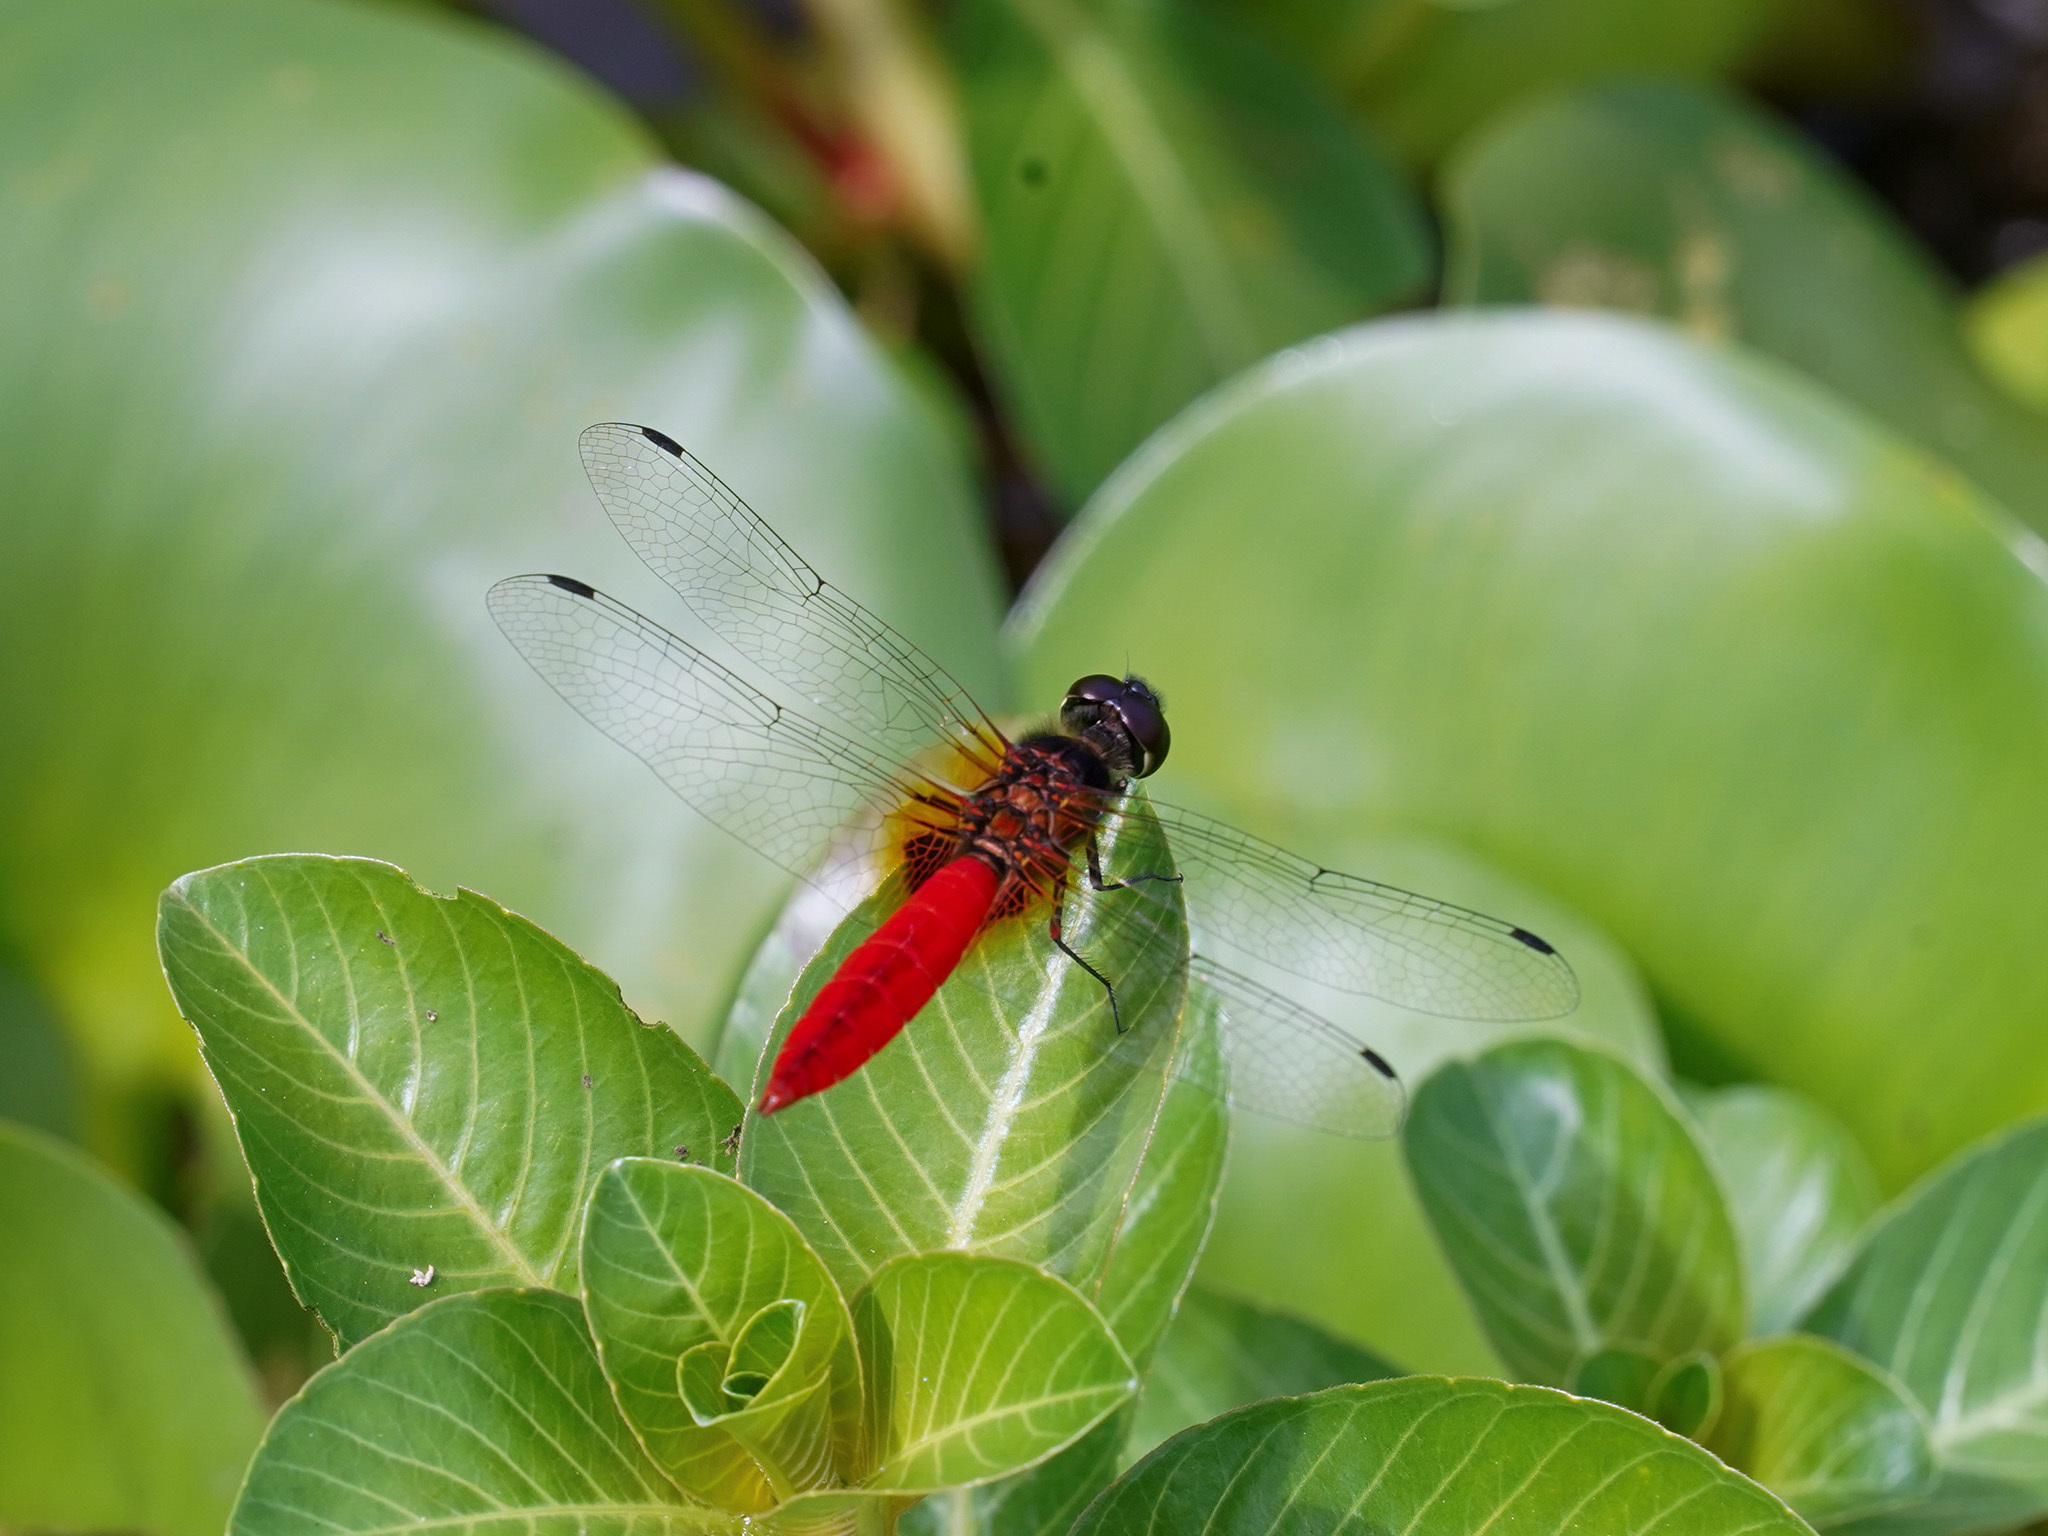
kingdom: Animalia
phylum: Arthropoda
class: Insecta
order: Odonata
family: Libellulidae
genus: Aethriamanta
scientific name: Aethriamanta brevipennis
